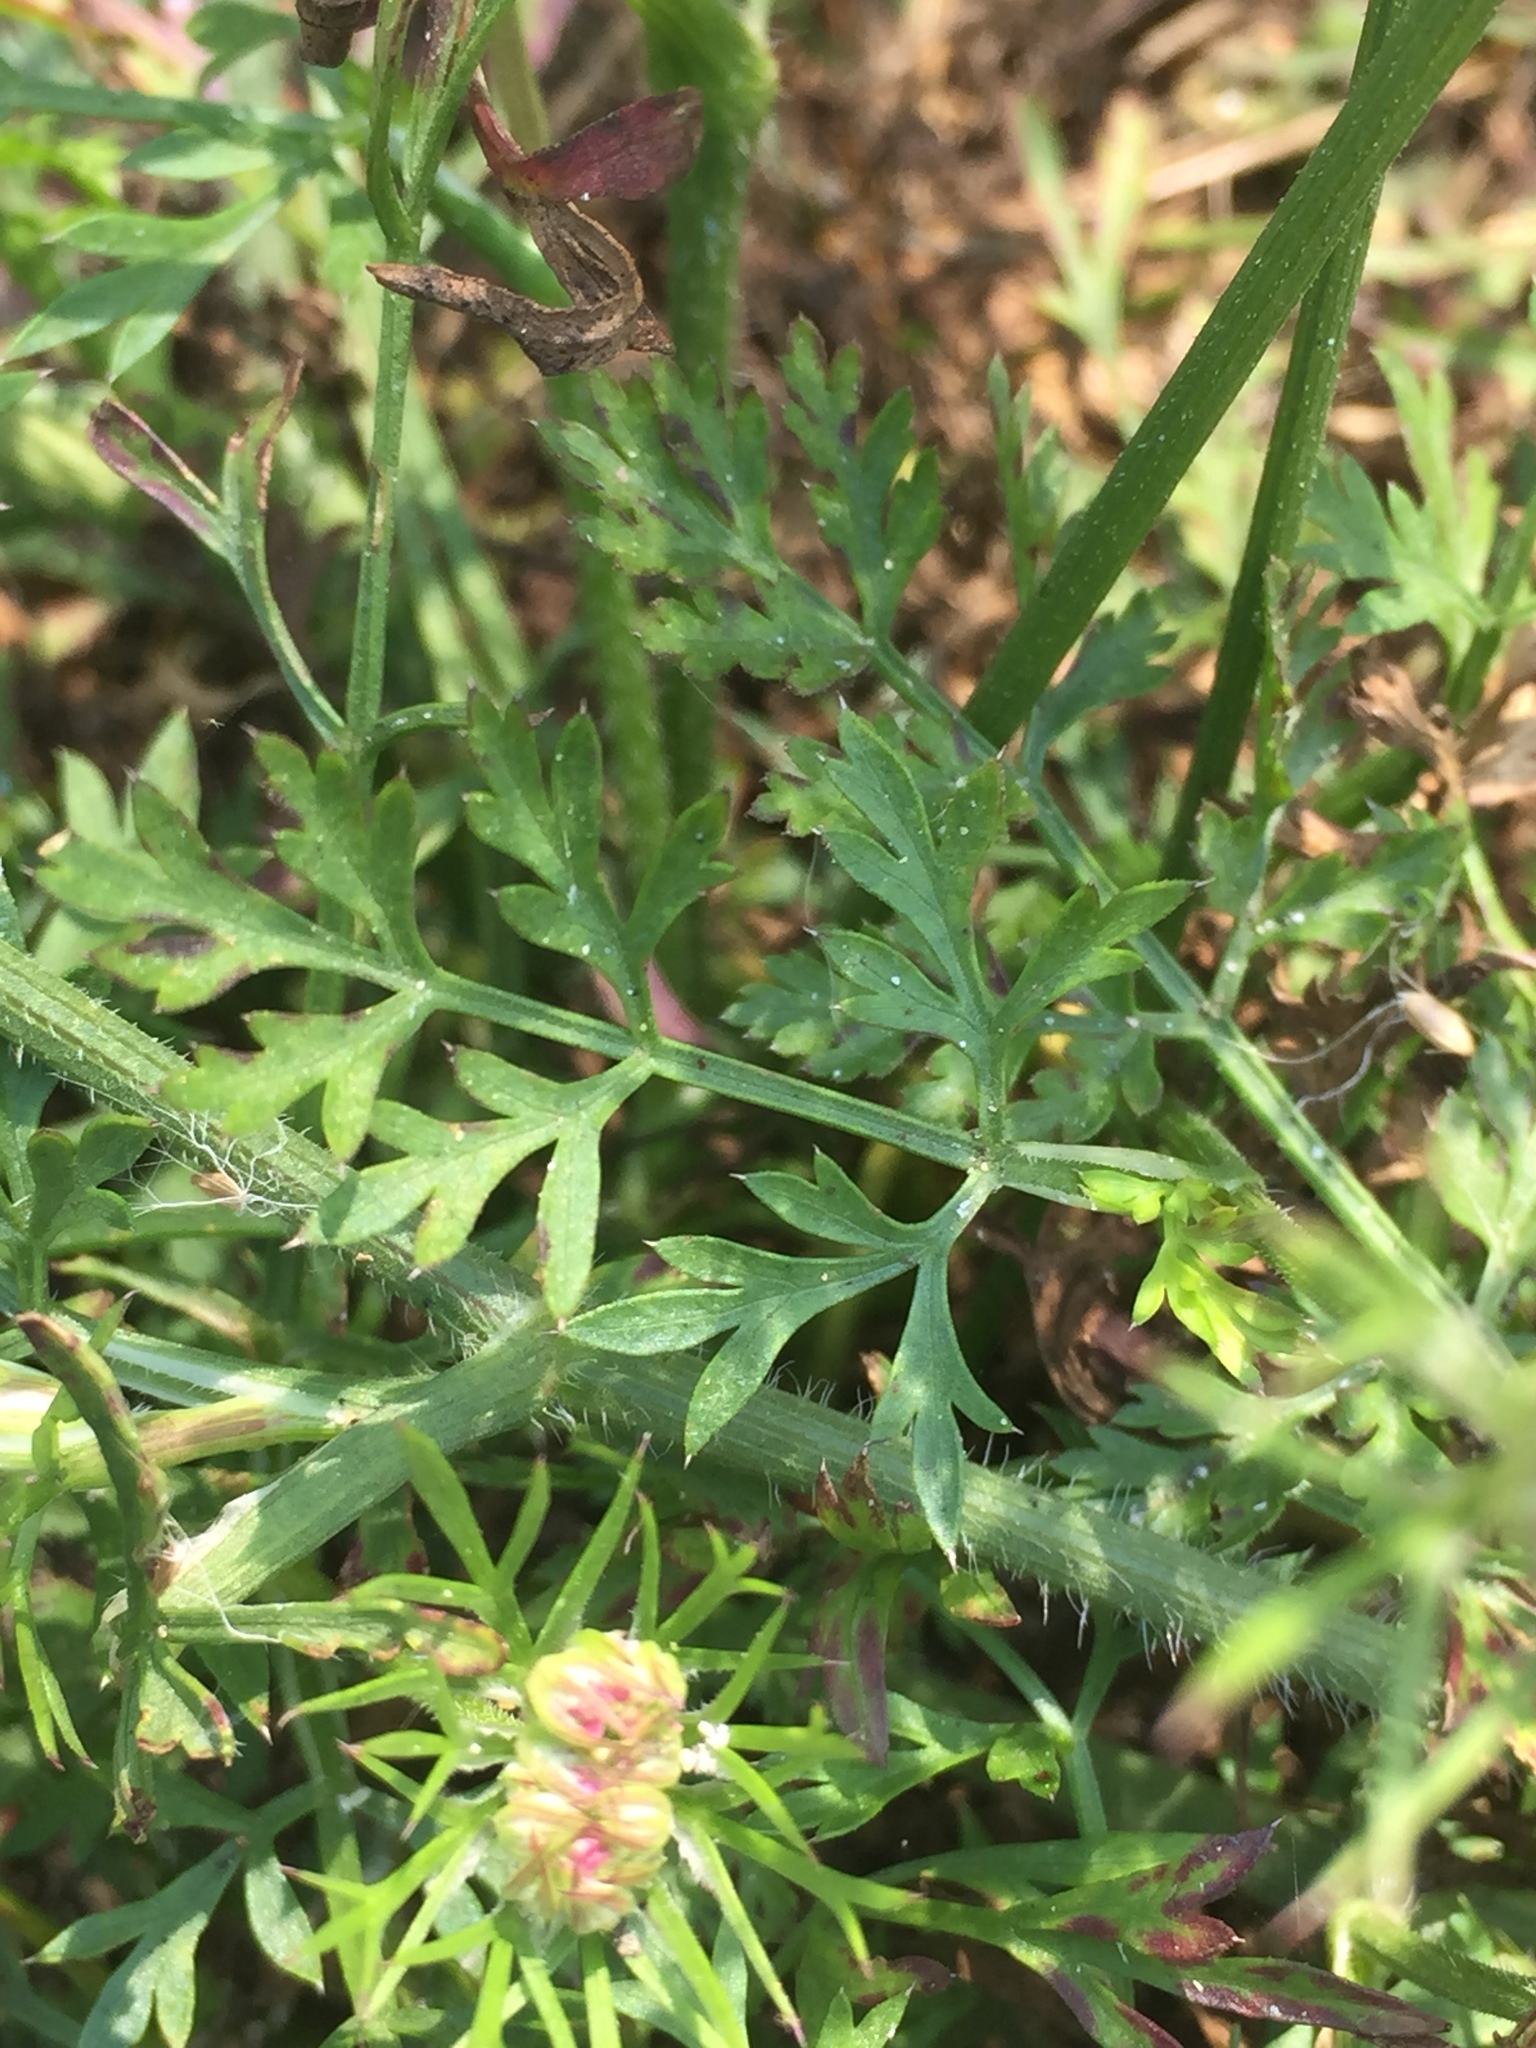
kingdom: Plantae
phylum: Tracheophyta
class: Magnoliopsida
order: Apiales
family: Apiaceae
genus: Daucus
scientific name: Daucus carota
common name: Wild carrot
